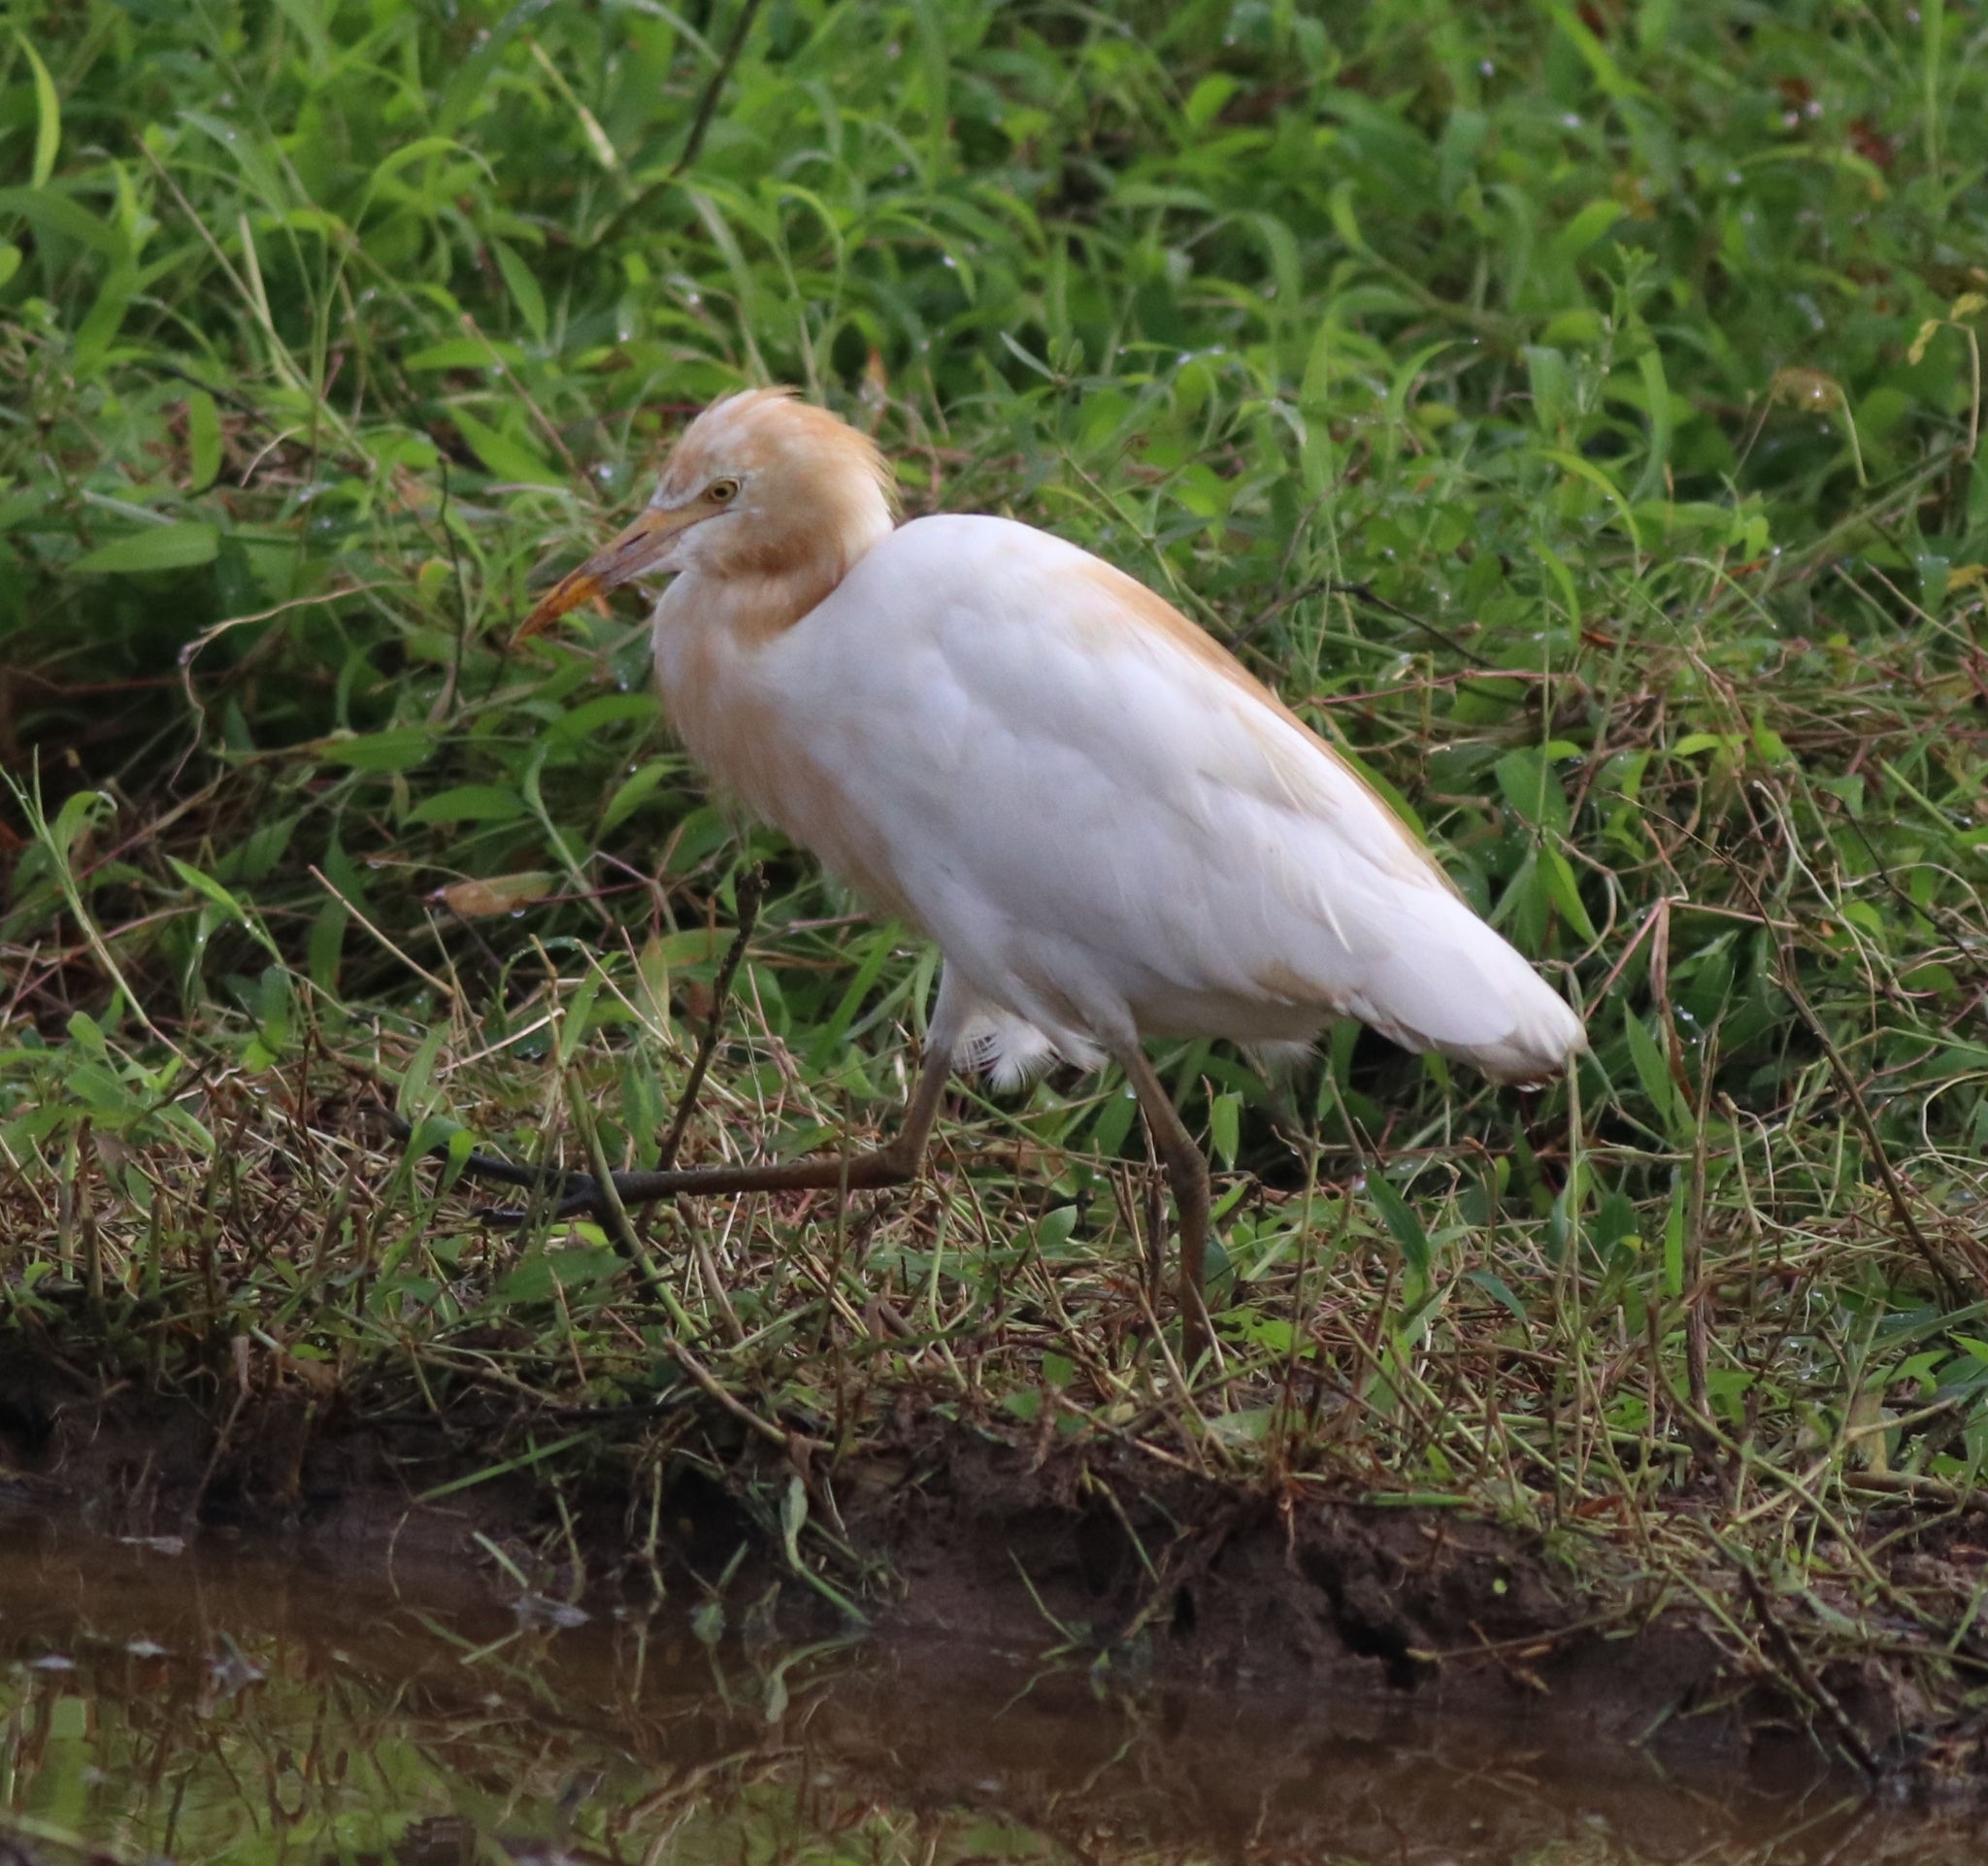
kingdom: Animalia
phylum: Chordata
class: Aves
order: Pelecaniformes
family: Ardeidae
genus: Bubulcus
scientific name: Bubulcus coromandus
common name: Eastern cattle egret
